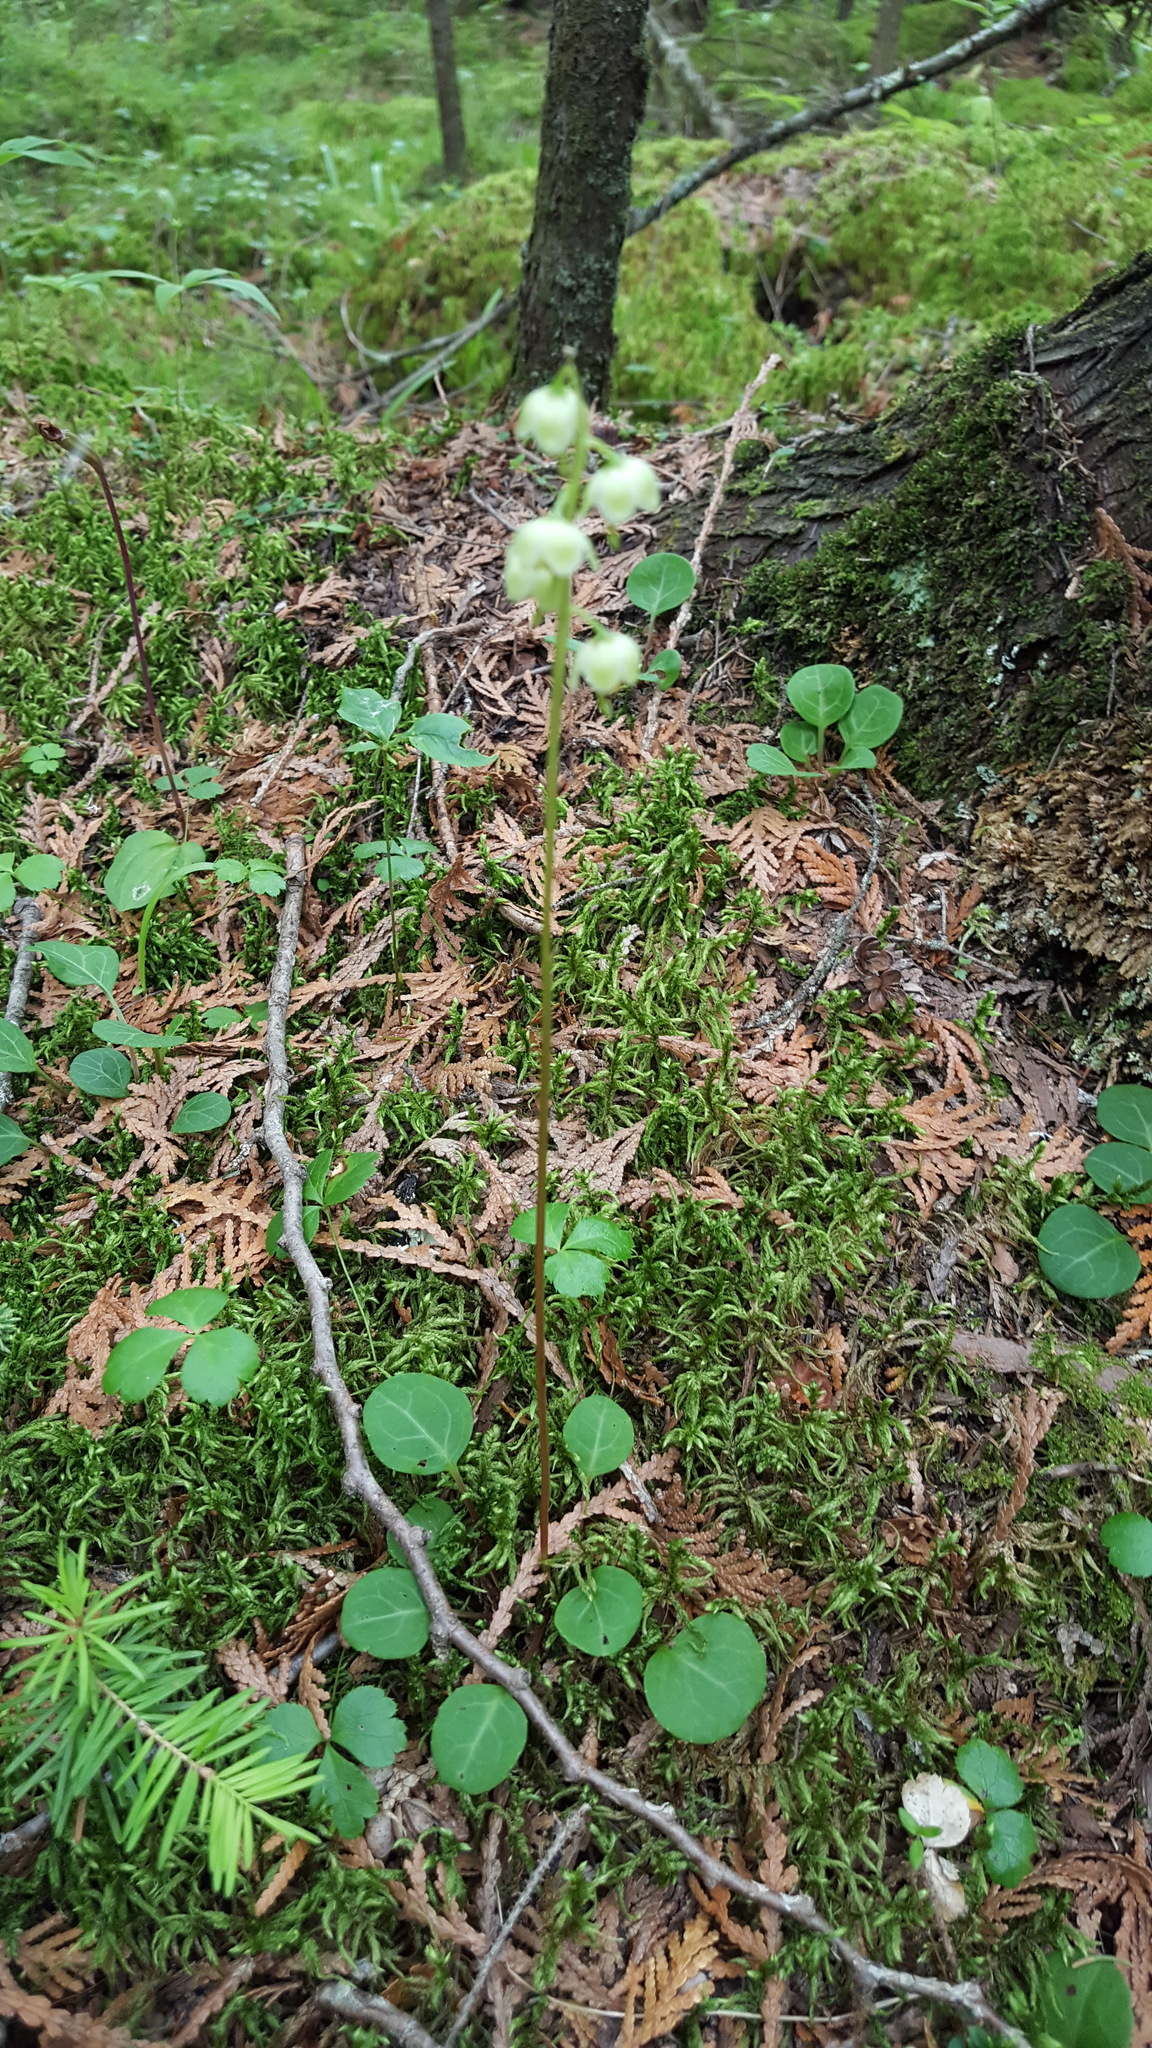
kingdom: Plantae
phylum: Tracheophyta
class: Magnoliopsida
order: Ericales
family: Ericaceae
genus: Pyrola
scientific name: Pyrola chlorantha
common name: Green wintergreen
